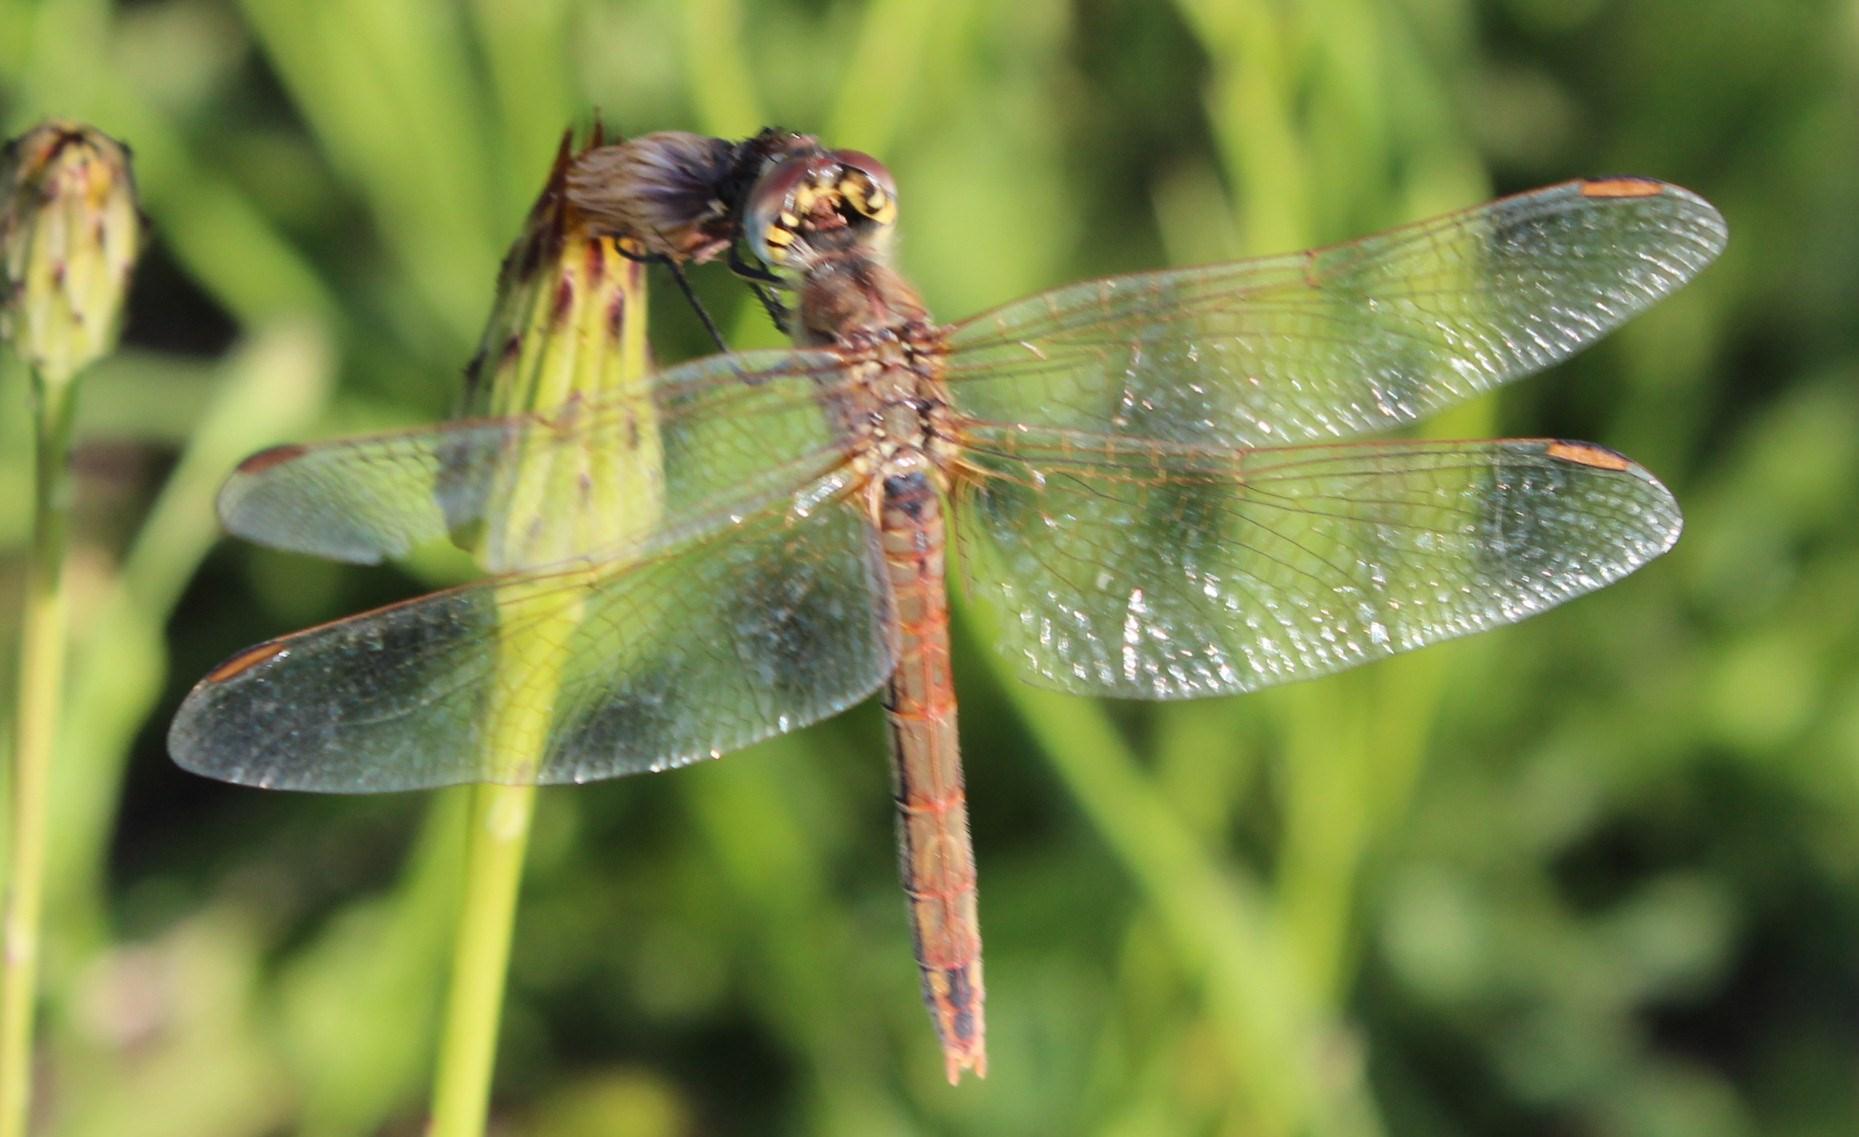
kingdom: Animalia
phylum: Arthropoda
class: Insecta
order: Odonata
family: Libellulidae
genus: Sympetrum
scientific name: Sympetrum fonscolombii
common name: Red-veined darter
